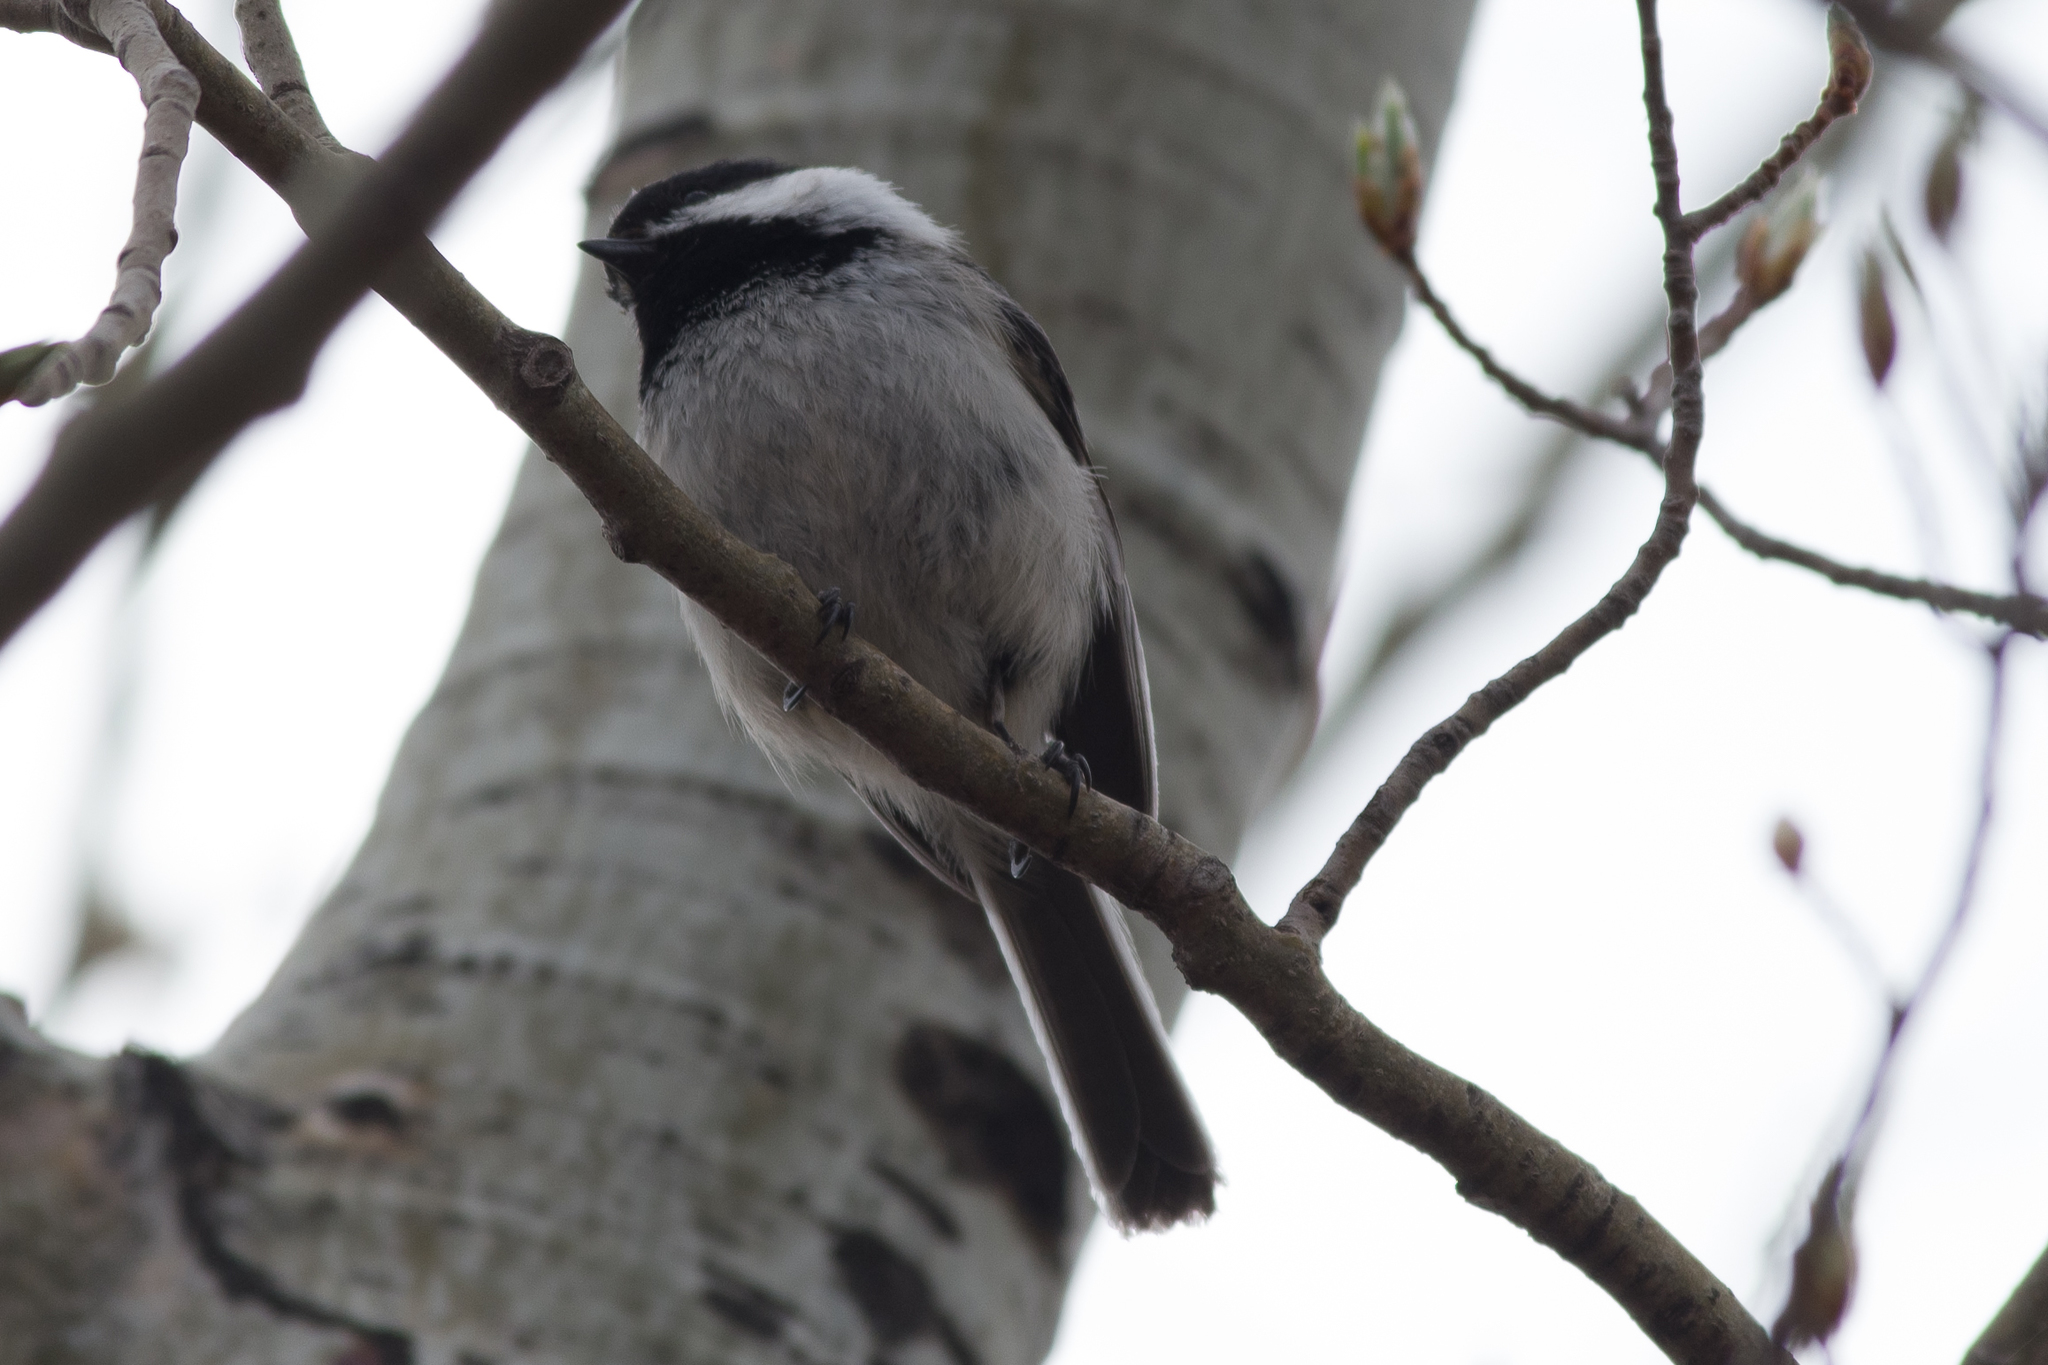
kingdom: Animalia
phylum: Chordata
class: Aves
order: Passeriformes
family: Paridae
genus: Poecile
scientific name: Poecile atricapillus
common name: Black-capped chickadee
